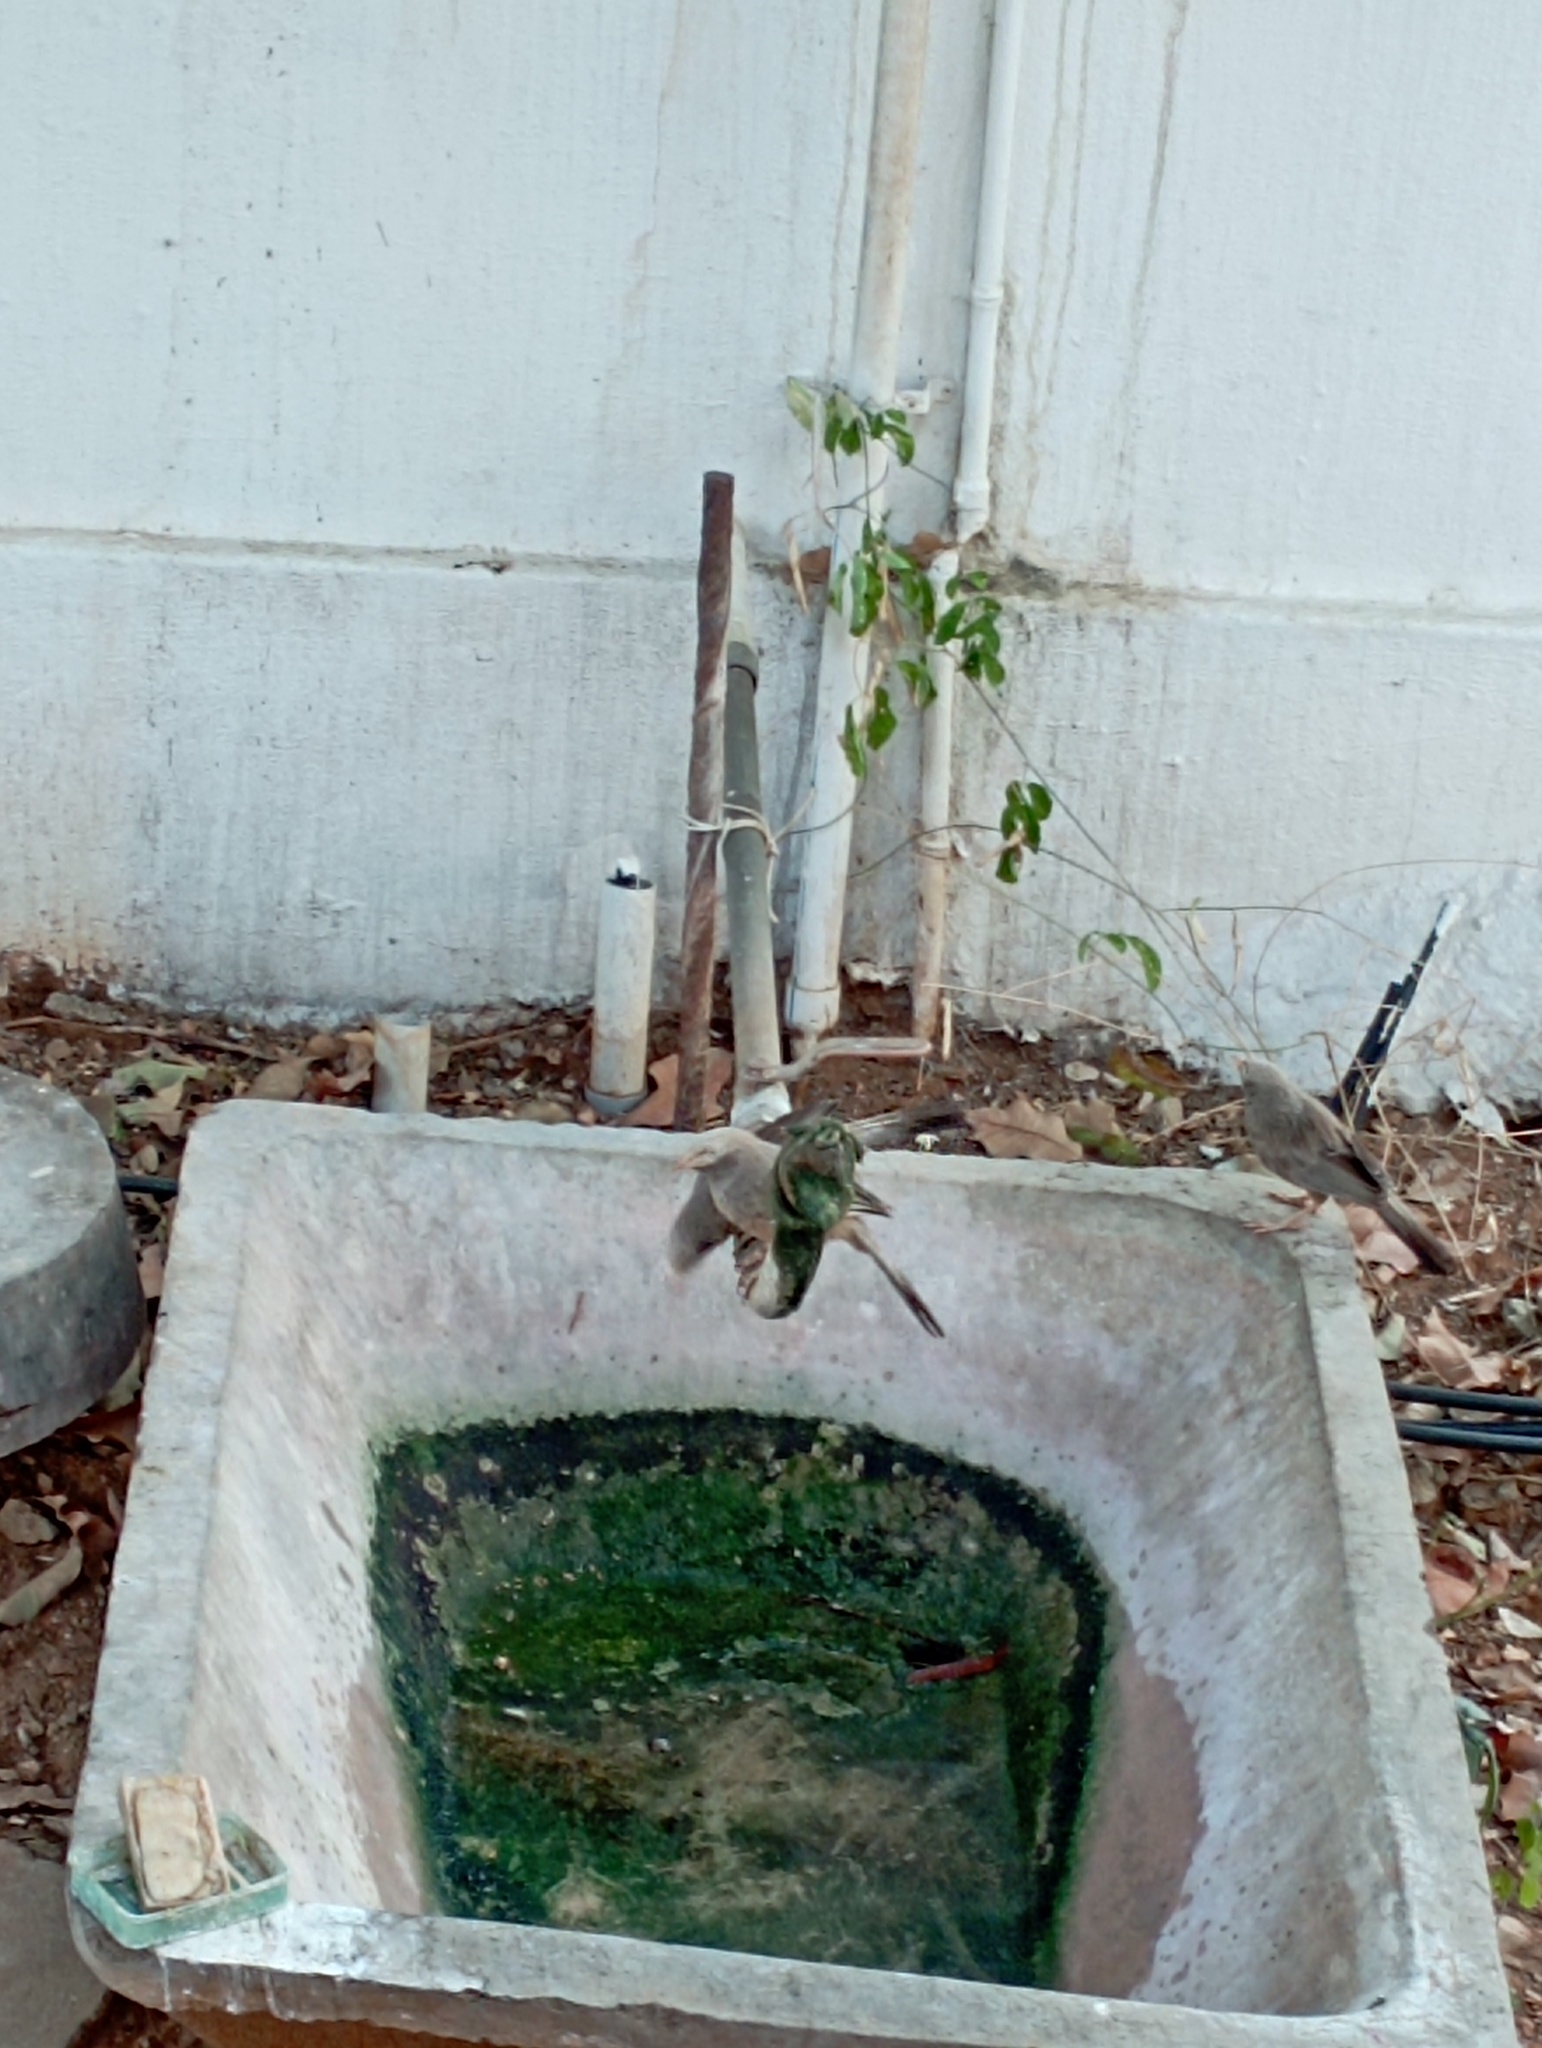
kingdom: Animalia
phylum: Chordata
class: Aves
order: Passeriformes
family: Leiothrichidae
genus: Turdoides
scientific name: Turdoides affinis
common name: Yellow-billed babbler
